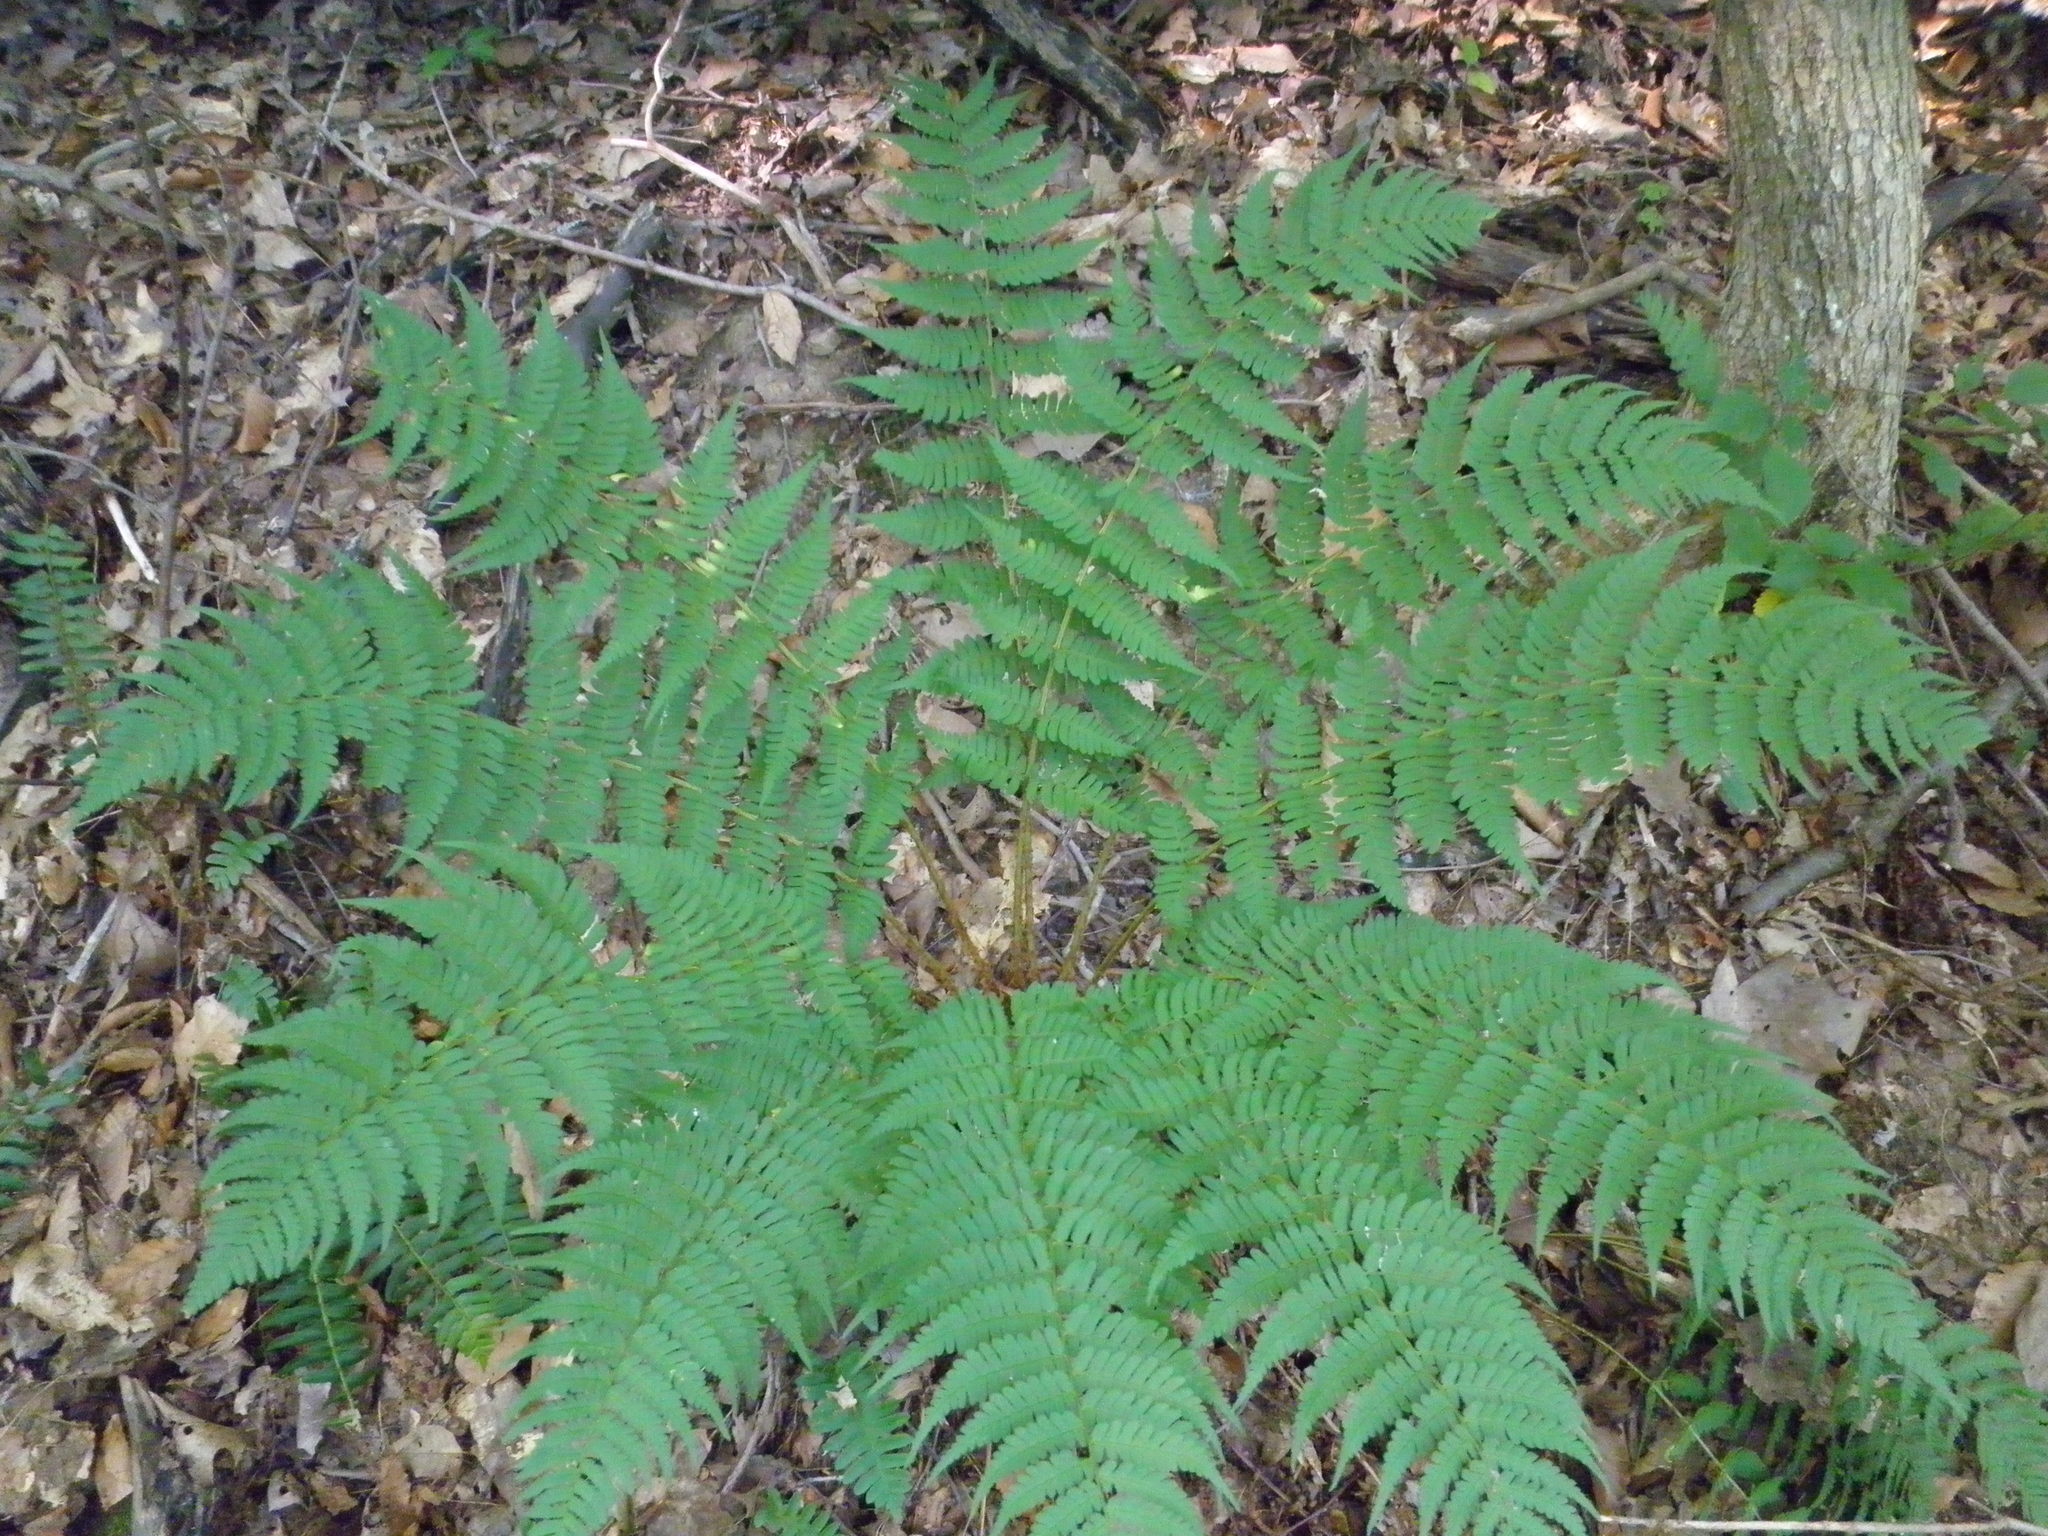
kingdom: Plantae
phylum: Tracheophyta
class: Polypodiopsida
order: Polypodiales
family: Dryopteridaceae
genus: Dryopteris
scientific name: Dryopteris marginalis
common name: Marginal wood fern
